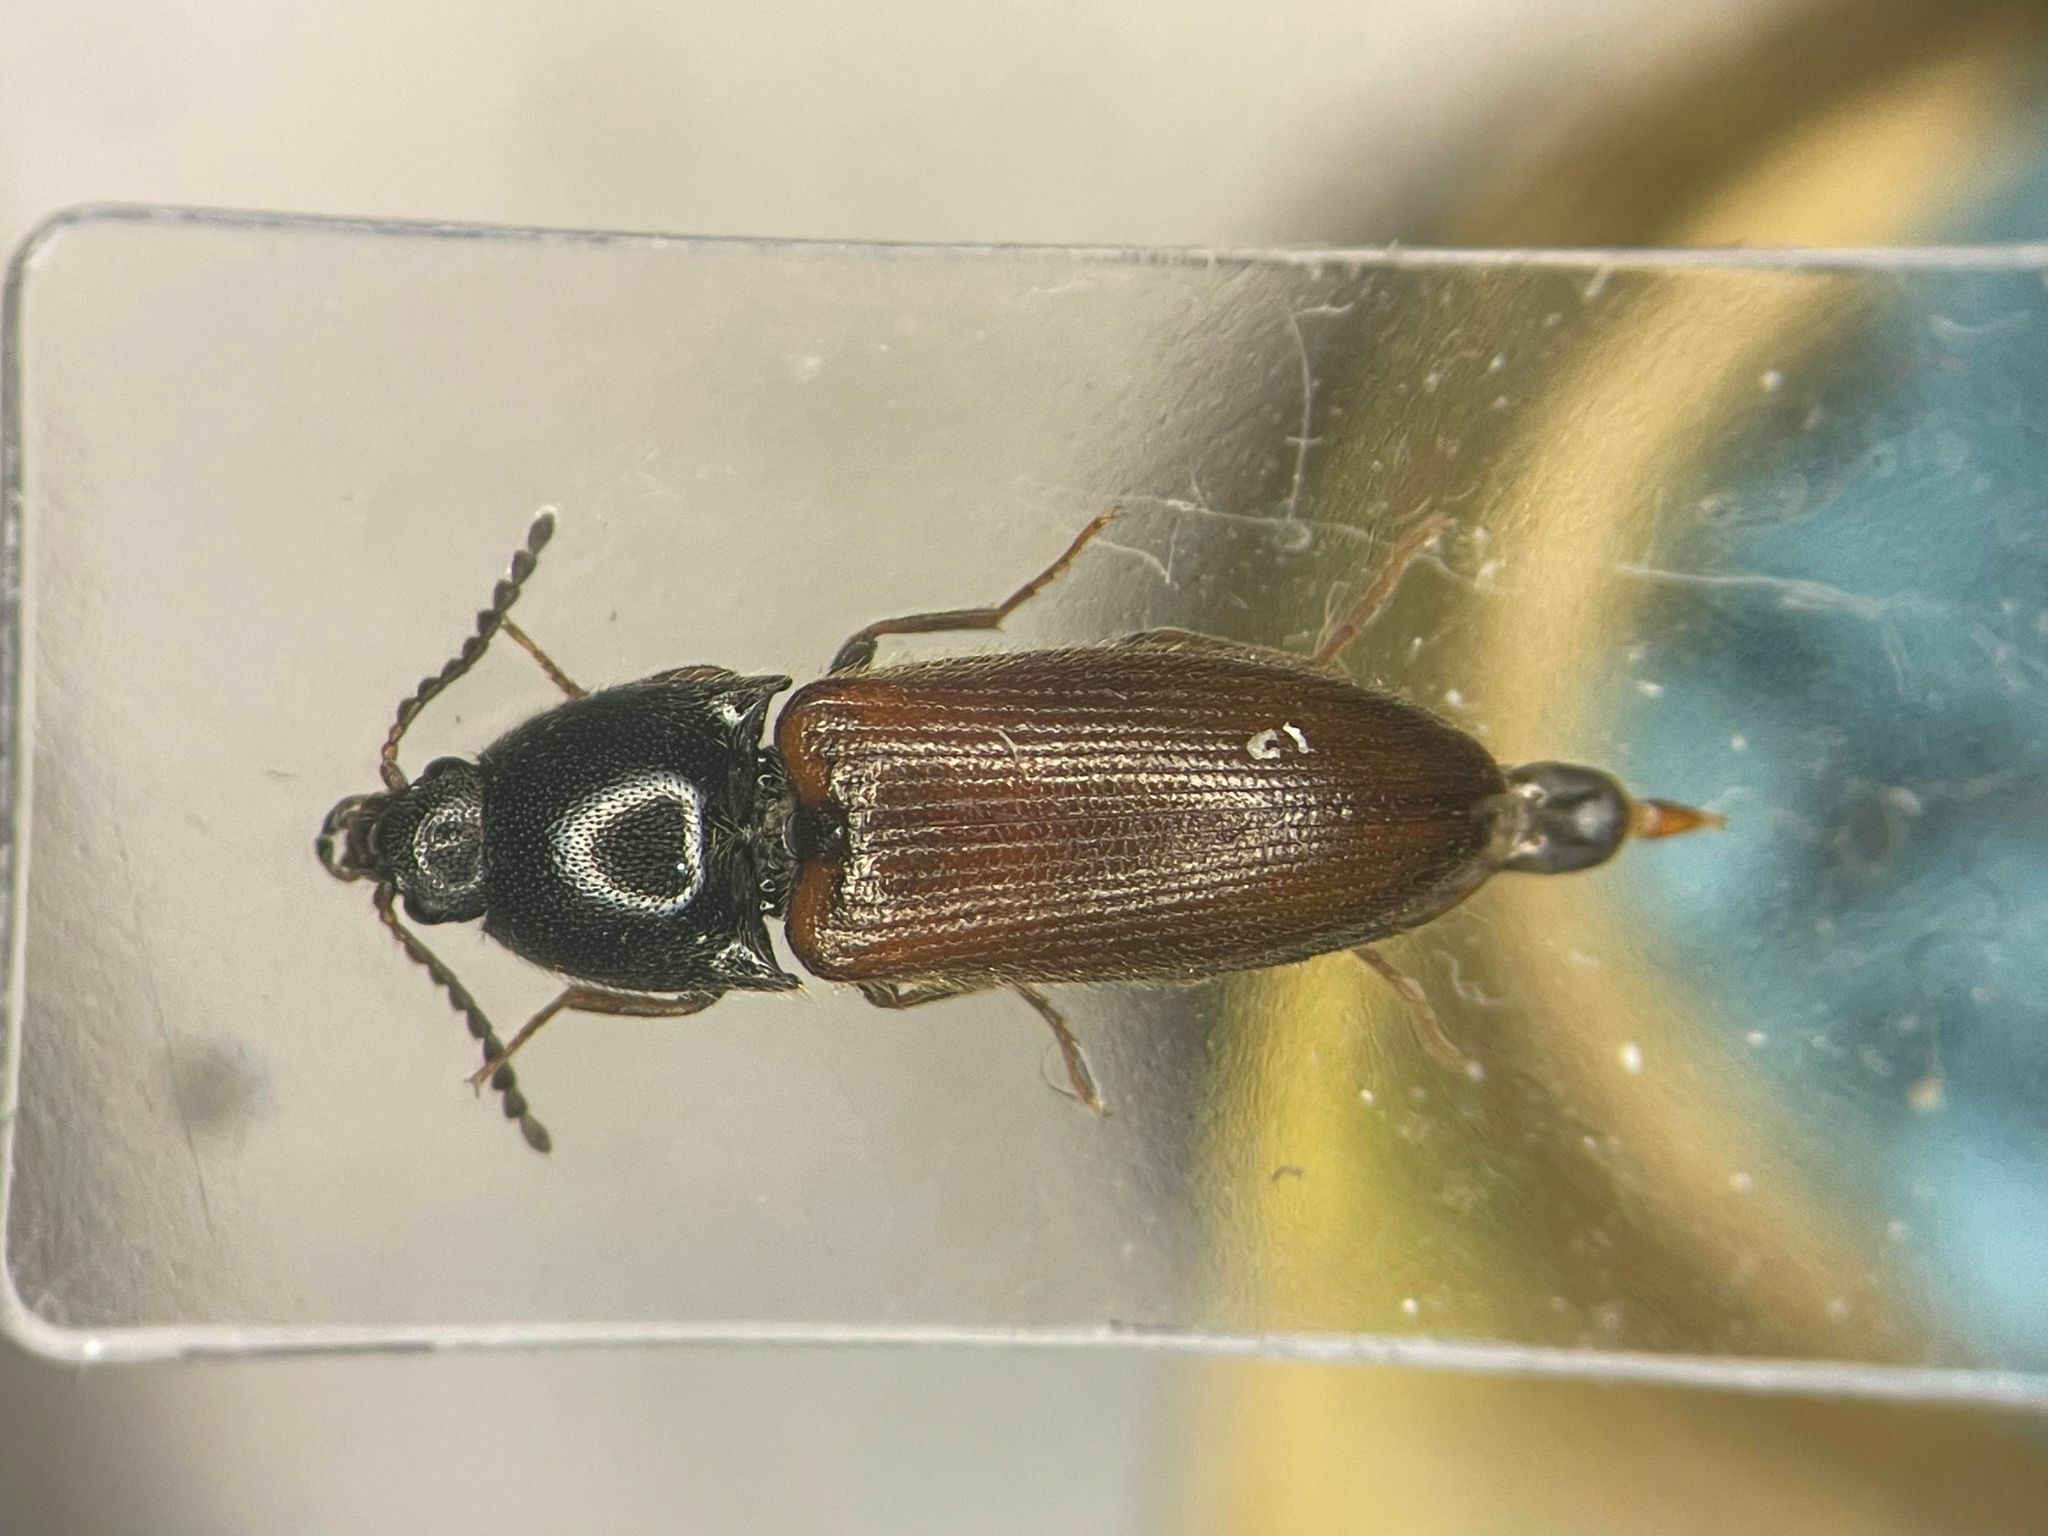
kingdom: Animalia
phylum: Arthropoda
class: Insecta
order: Coleoptera
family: Elateridae
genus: Ampedus
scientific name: Ampedus mixtus
